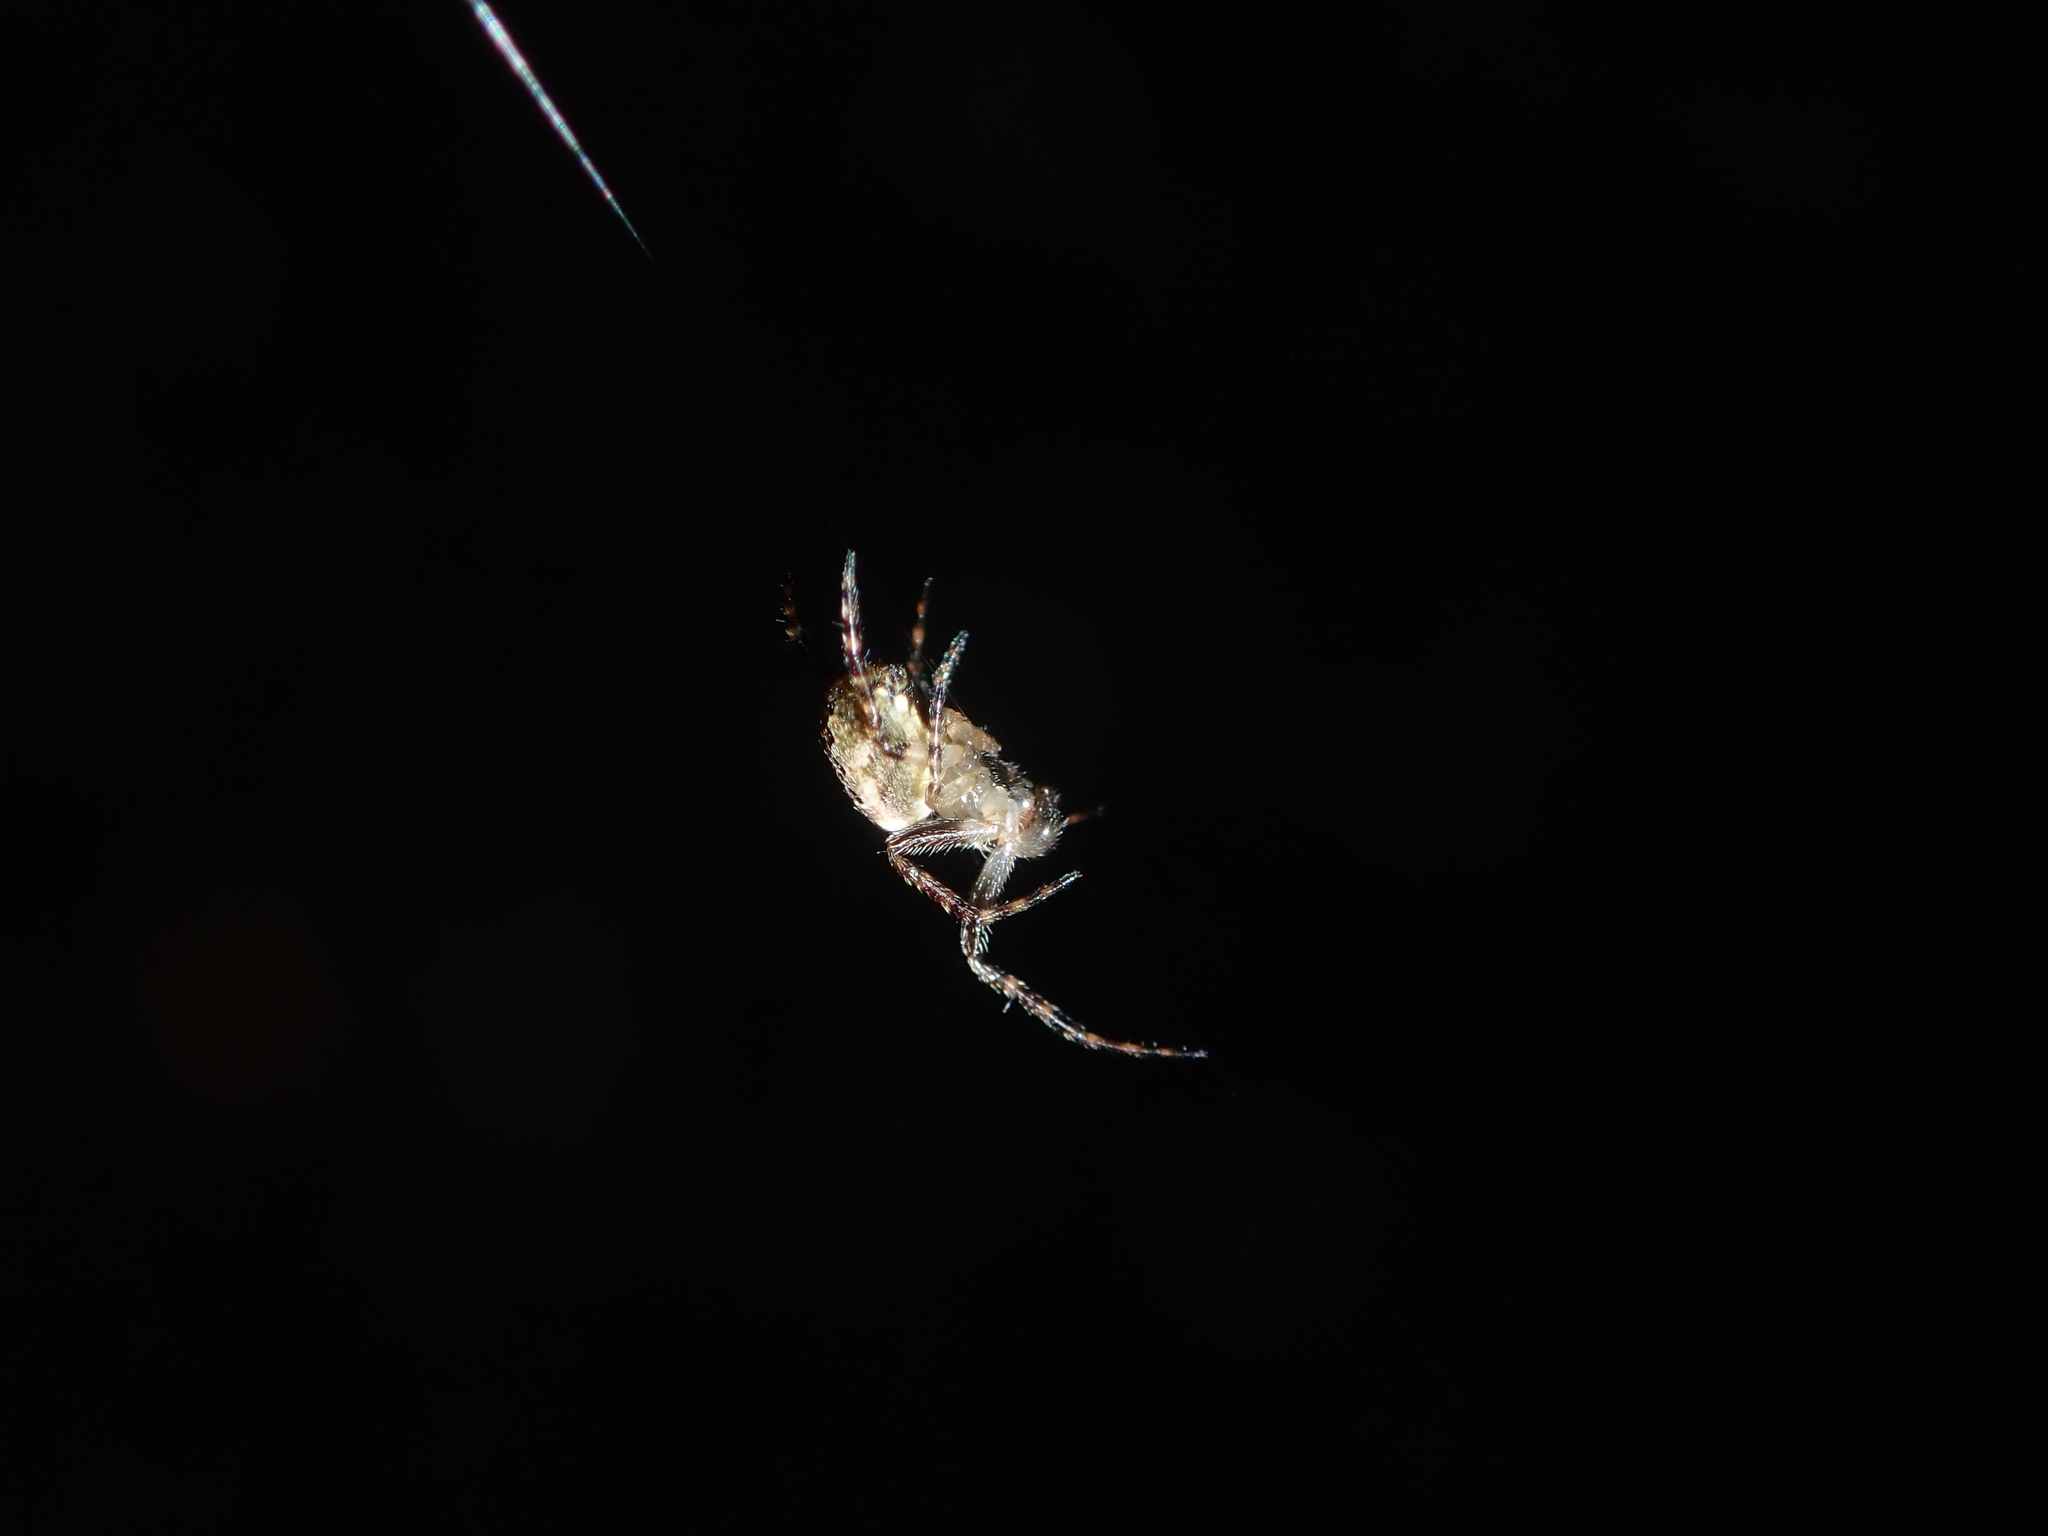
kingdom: Animalia
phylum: Arthropoda
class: Arachnida
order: Araneae
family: Araneidae
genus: Plebs
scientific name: Plebs eburnus
